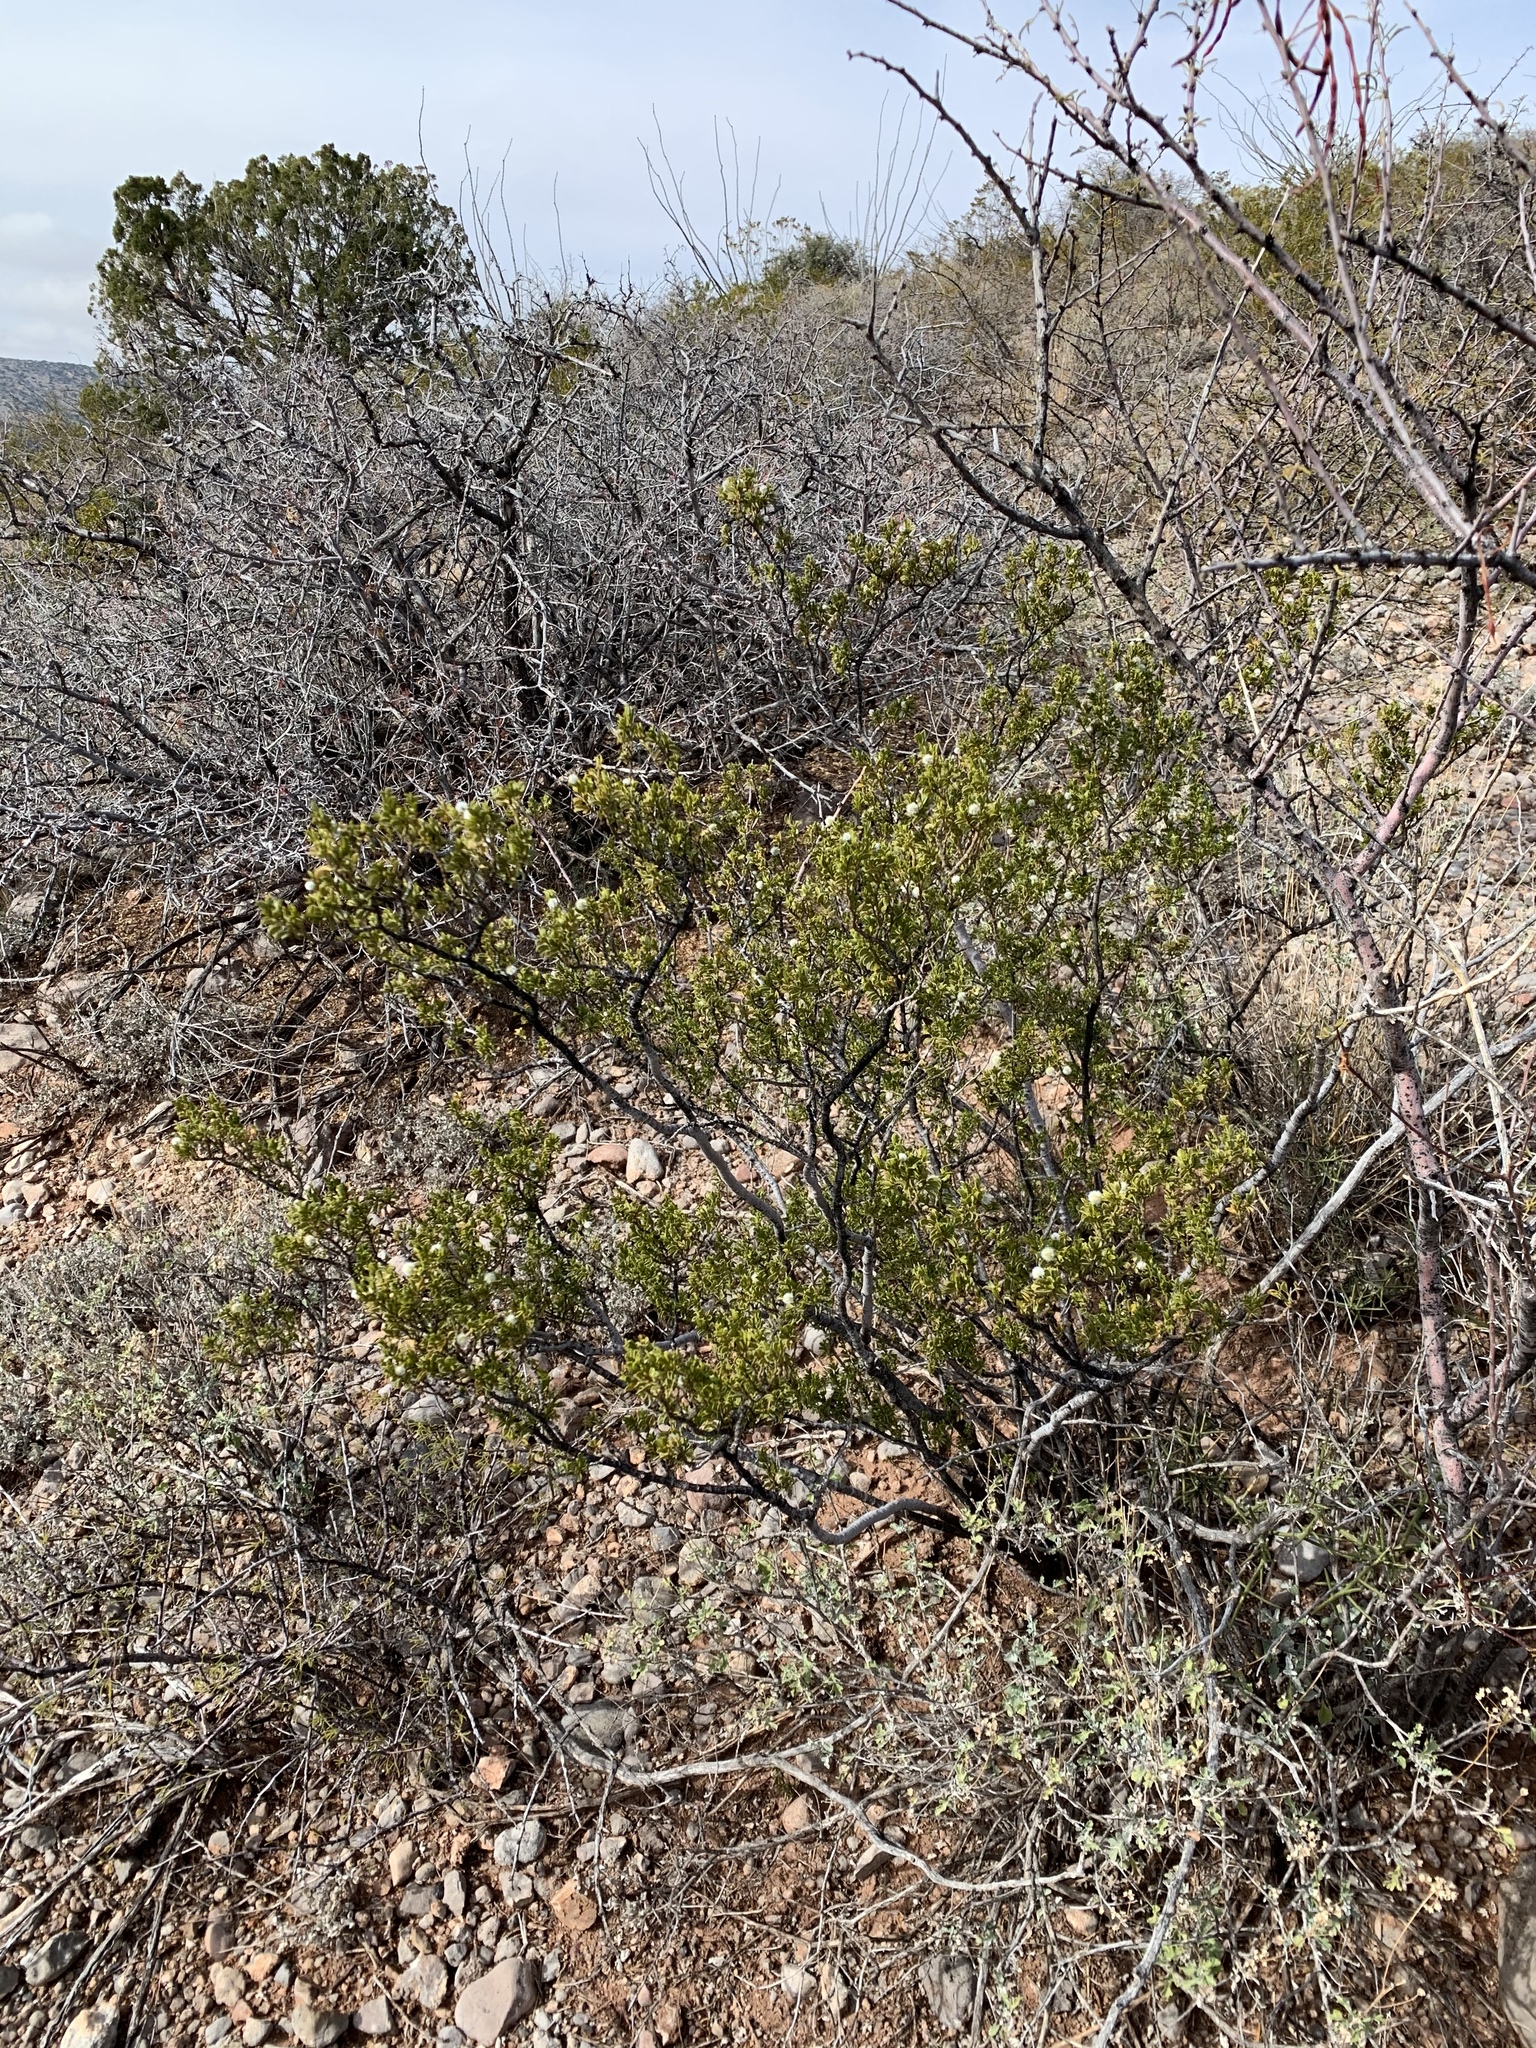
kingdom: Plantae
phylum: Tracheophyta
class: Magnoliopsida
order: Zygophyllales
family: Zygophyllaceae
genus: Larrea
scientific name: Larrea tridentata
